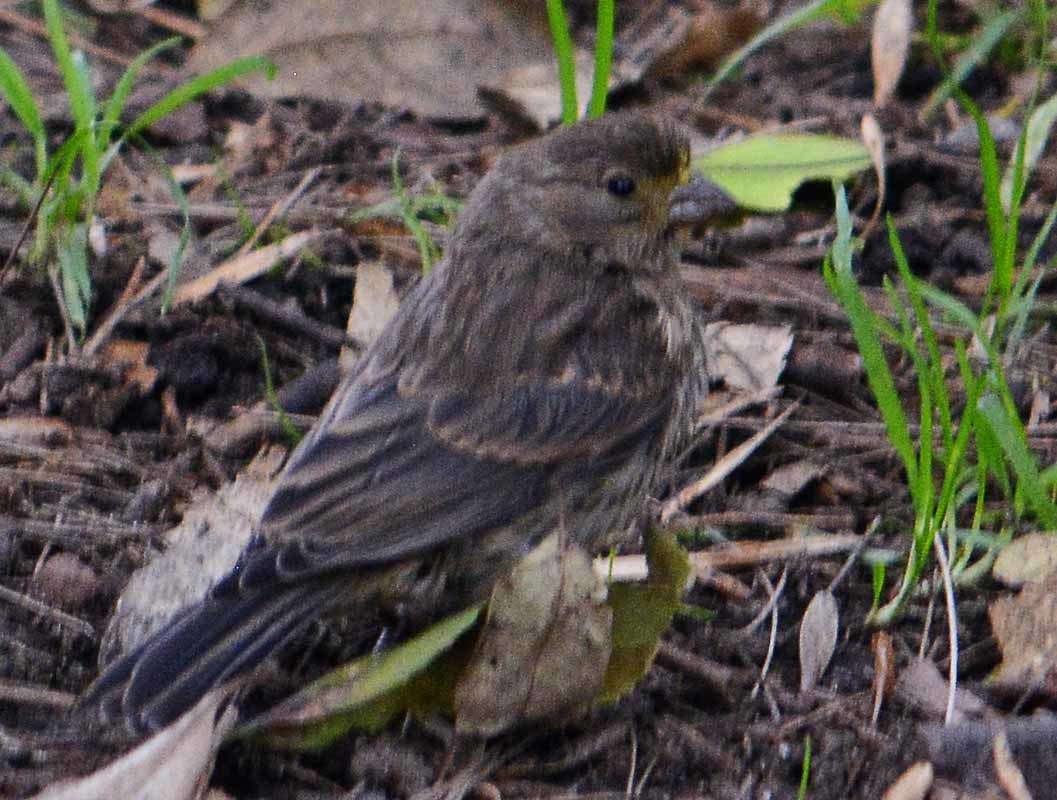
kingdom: Animalia
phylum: Chordata
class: Aves
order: Passeriformes
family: Fringillidae
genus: Haemorhous
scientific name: Haemorhous mexicanus
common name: House finch
